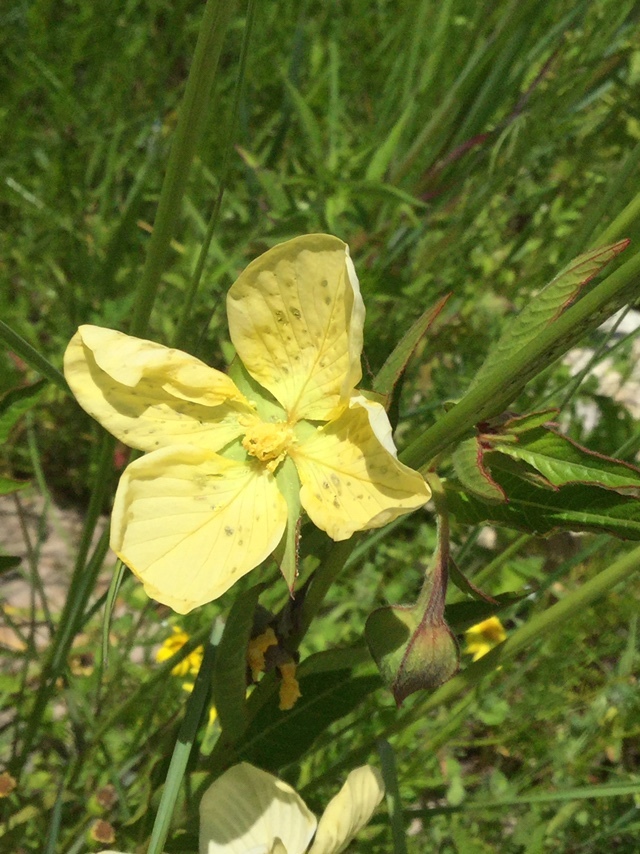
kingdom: Plantae
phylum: Tracheophyta
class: Magnoliopsida
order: Myrtales
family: Onagraceae
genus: Ludwigia
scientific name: Ludwigia octovalvis
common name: Water-primrose
